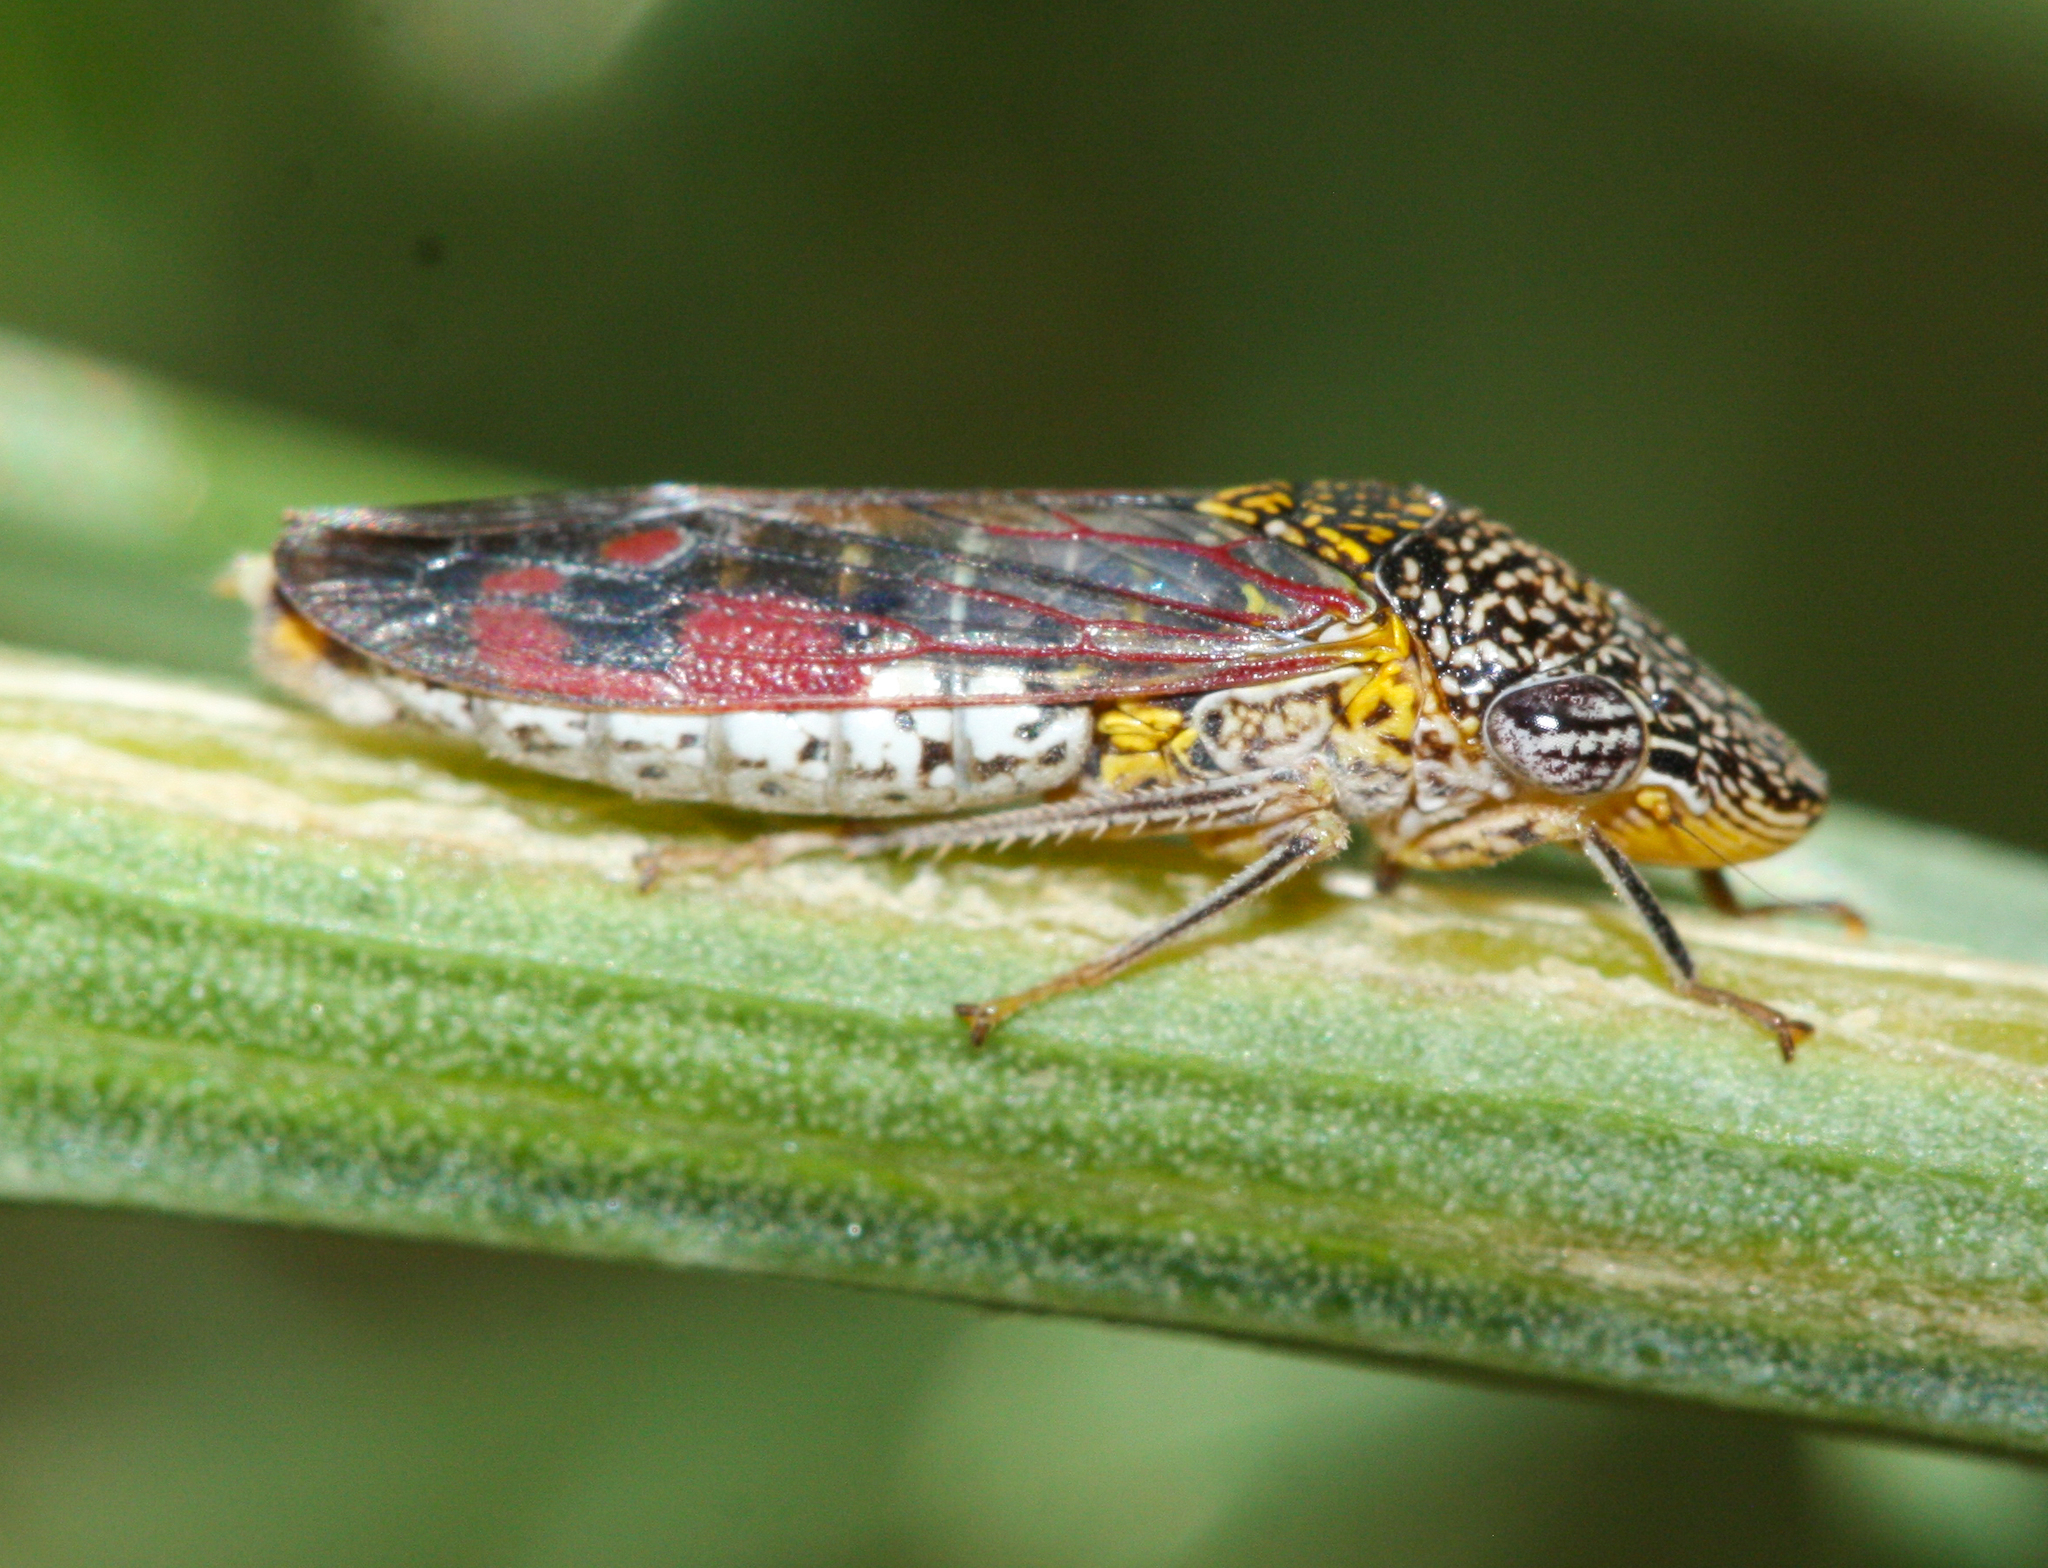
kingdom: Animalia
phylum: Arthropoda
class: Insecta
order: Hemiptera
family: Cicadellidae
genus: Homalodisca
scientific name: Homalodisca liturata
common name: Lacertate sharpshooter
